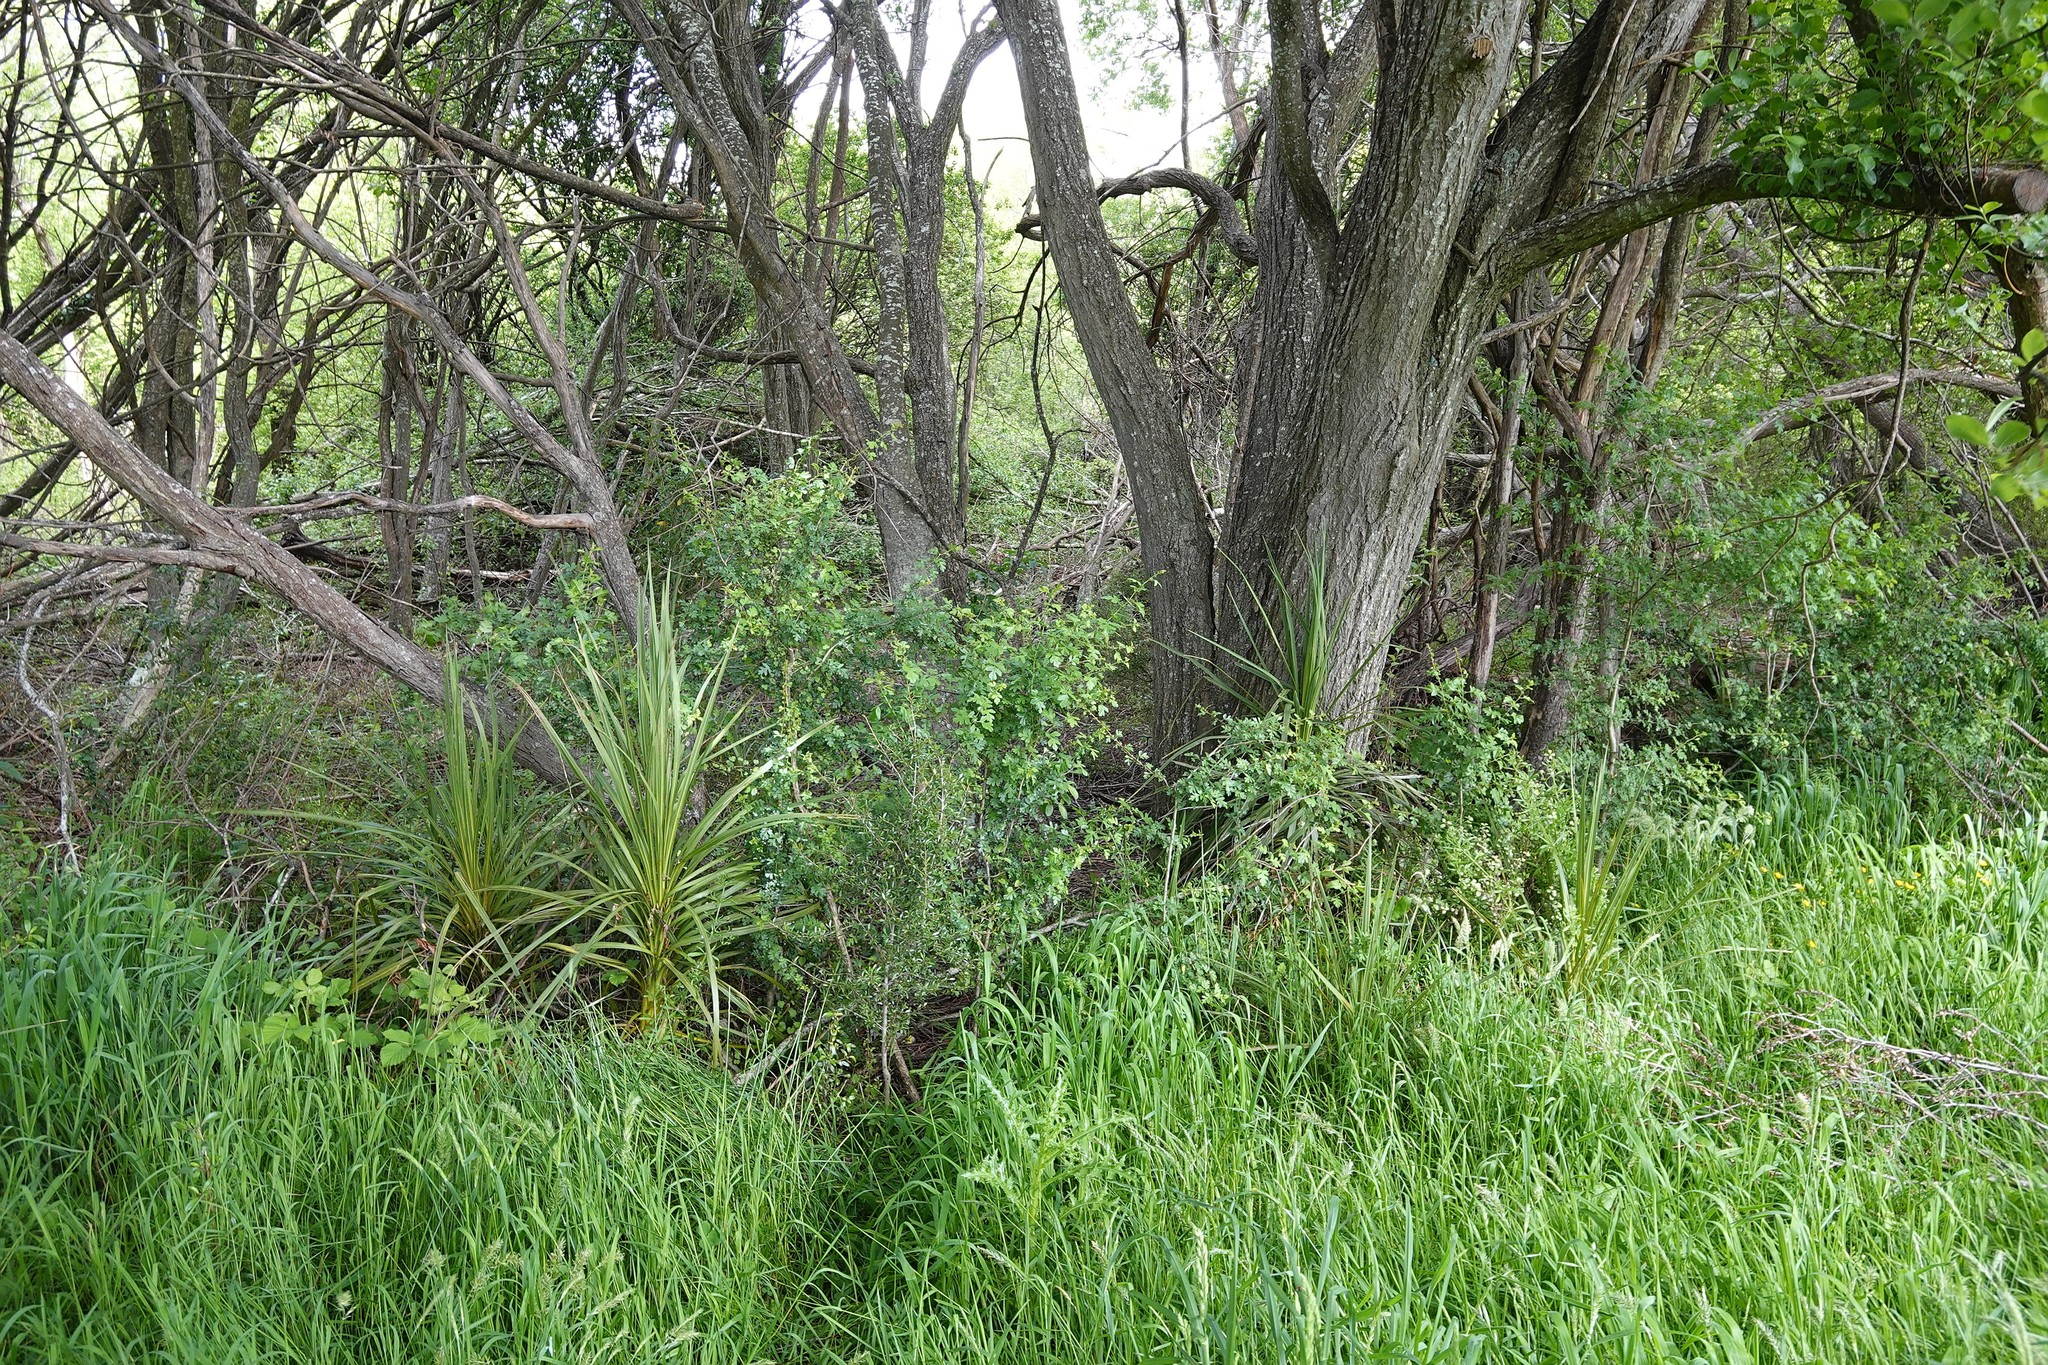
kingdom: Plantae
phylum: Tracheophyta
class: Magnoliopsida
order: Rosales
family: Rosaceae
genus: Crataegus
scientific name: Crataegus monogyna
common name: Hawthorn
